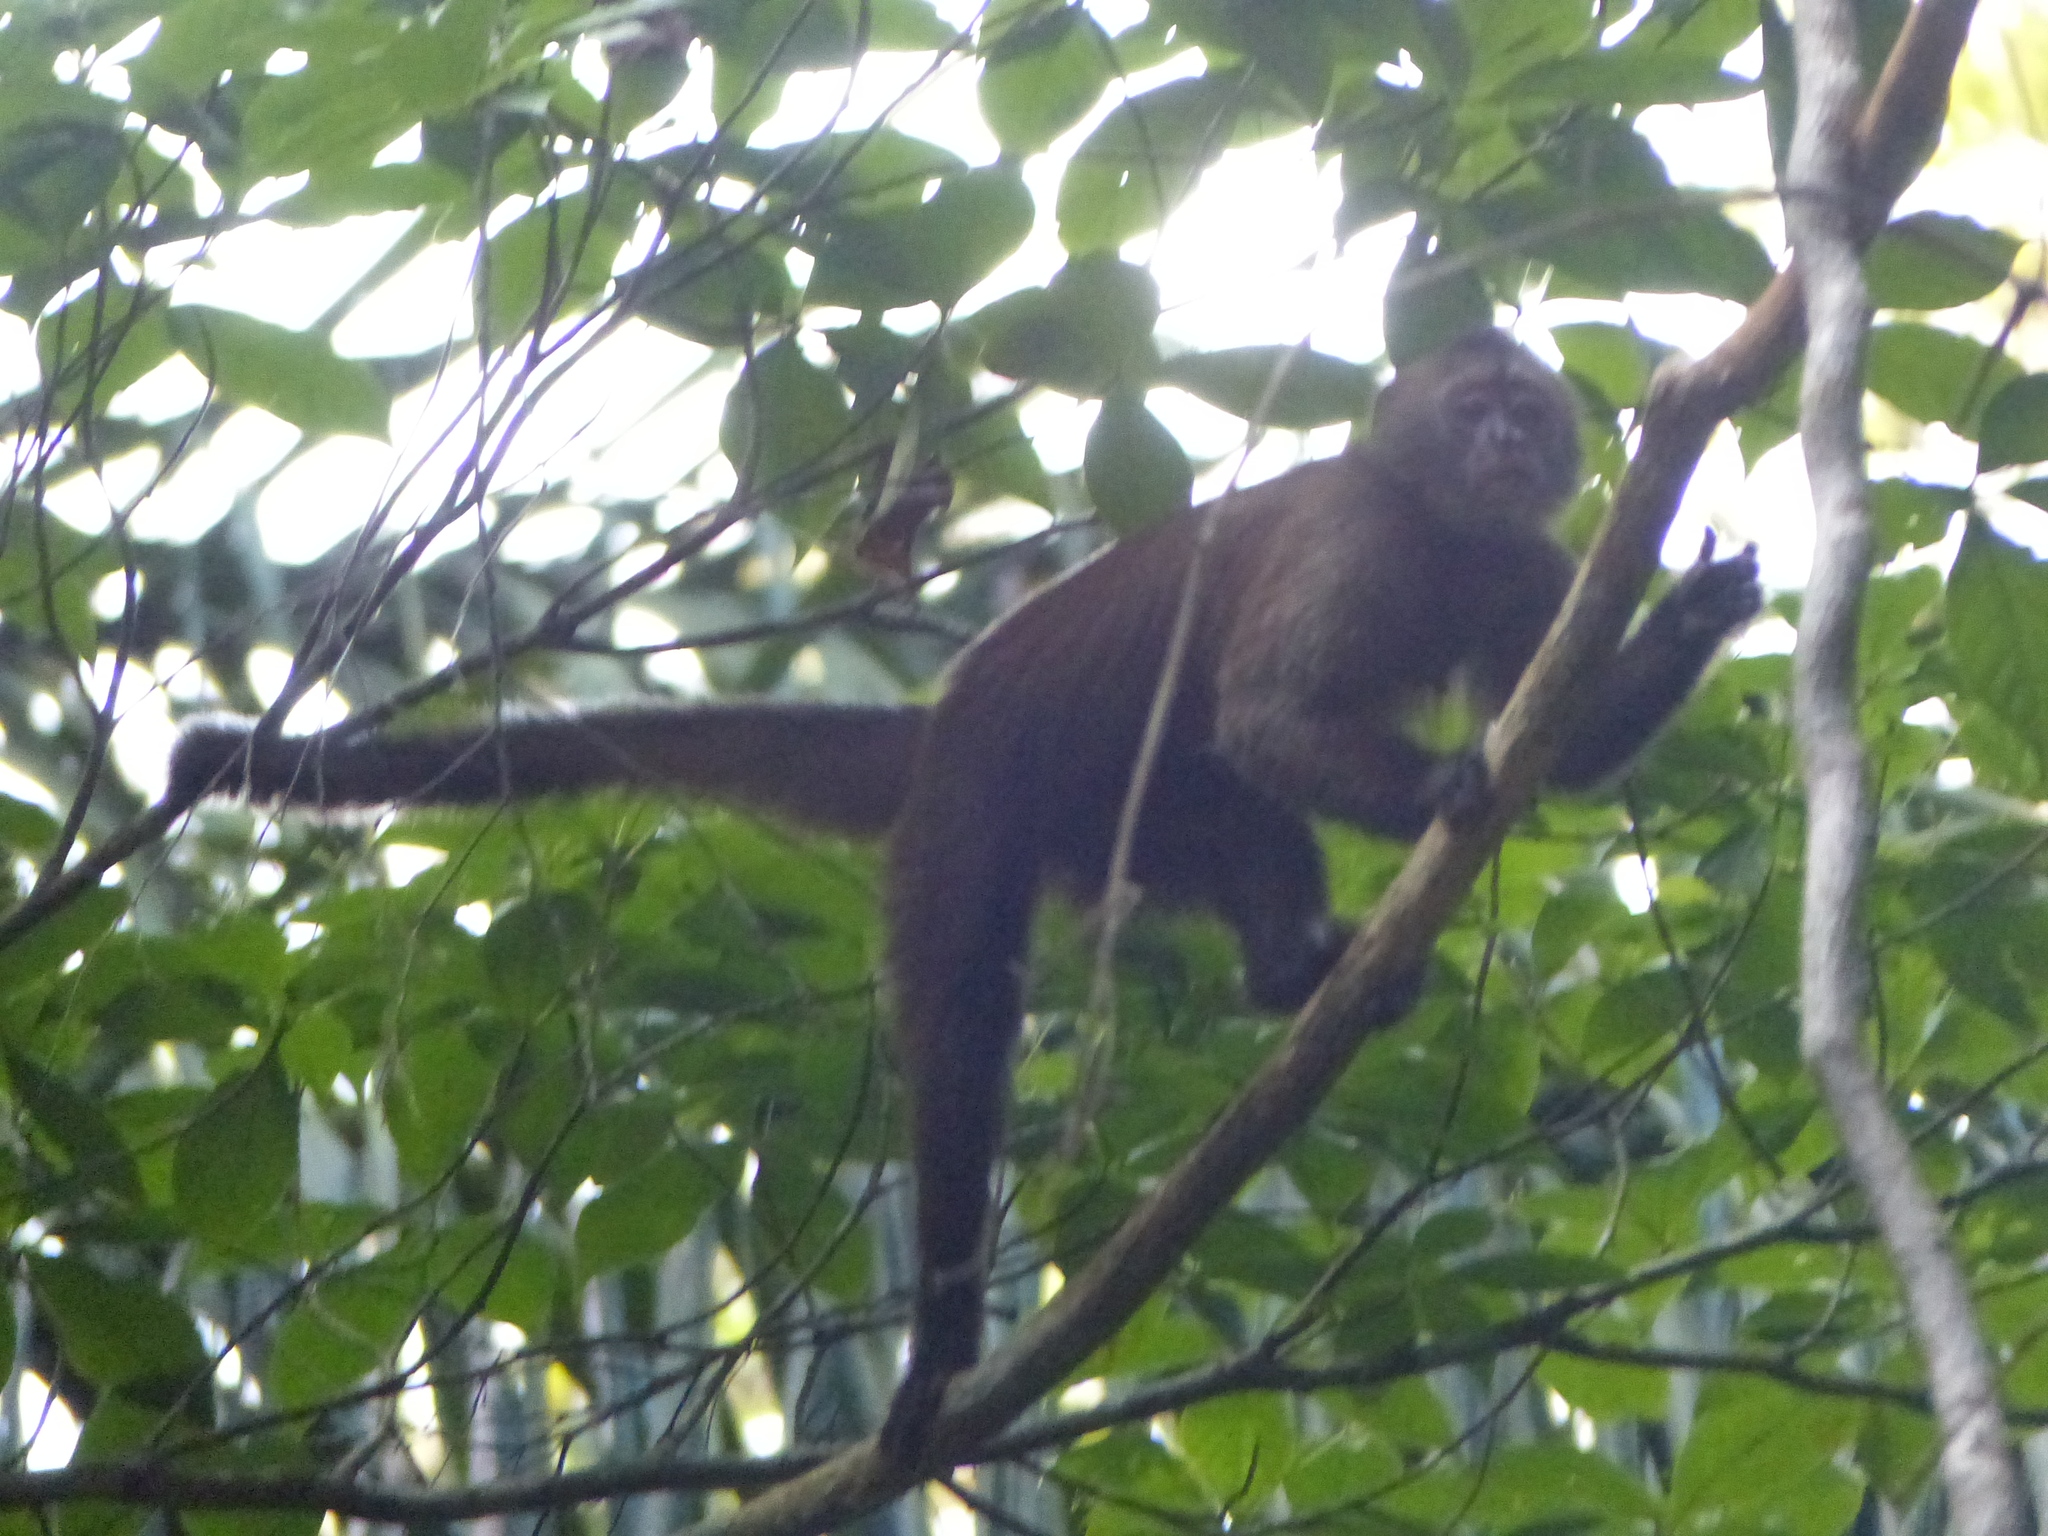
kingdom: Animalia
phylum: Chordata
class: Mammalia
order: Primates
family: Cebidae
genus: Cebus
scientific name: Cebus olivaceus
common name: Weeper capuchin
